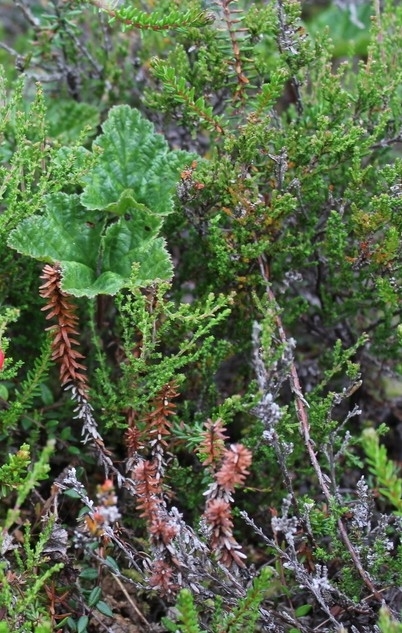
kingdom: Plantae
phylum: Tracheophyta
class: Magnoliopsida
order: Ericales
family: Ericaceae
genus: Empetrum
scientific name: Empetrum nigrum
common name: Black crowberry
